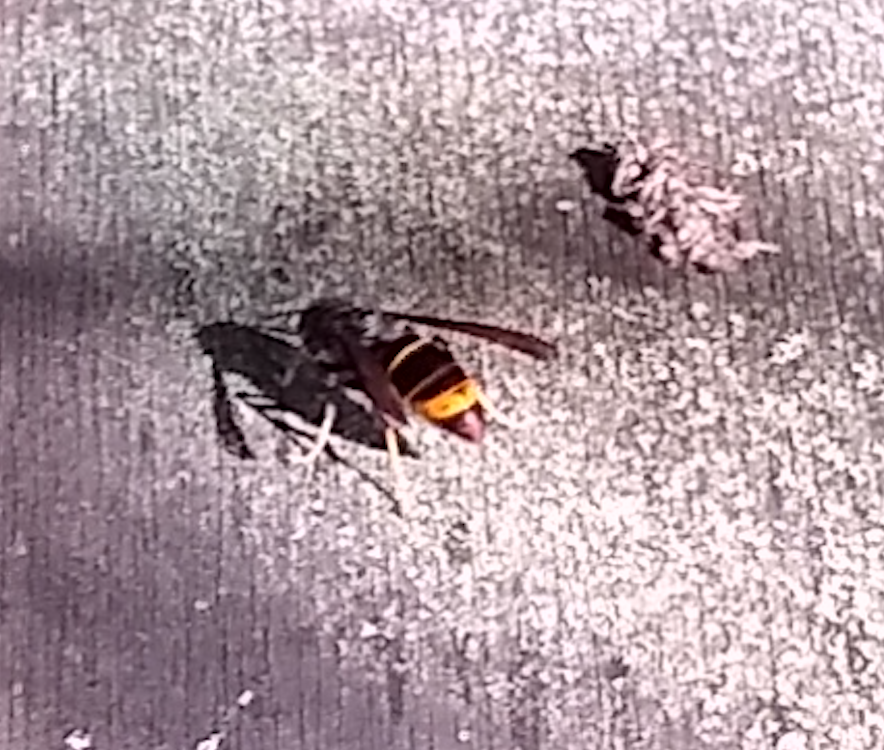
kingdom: Animalia
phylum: Arthropoda
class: Insecta
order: Hymenoptera
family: Vespidae
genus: Vespa
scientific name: Vespa velutina
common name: Asian hornet
